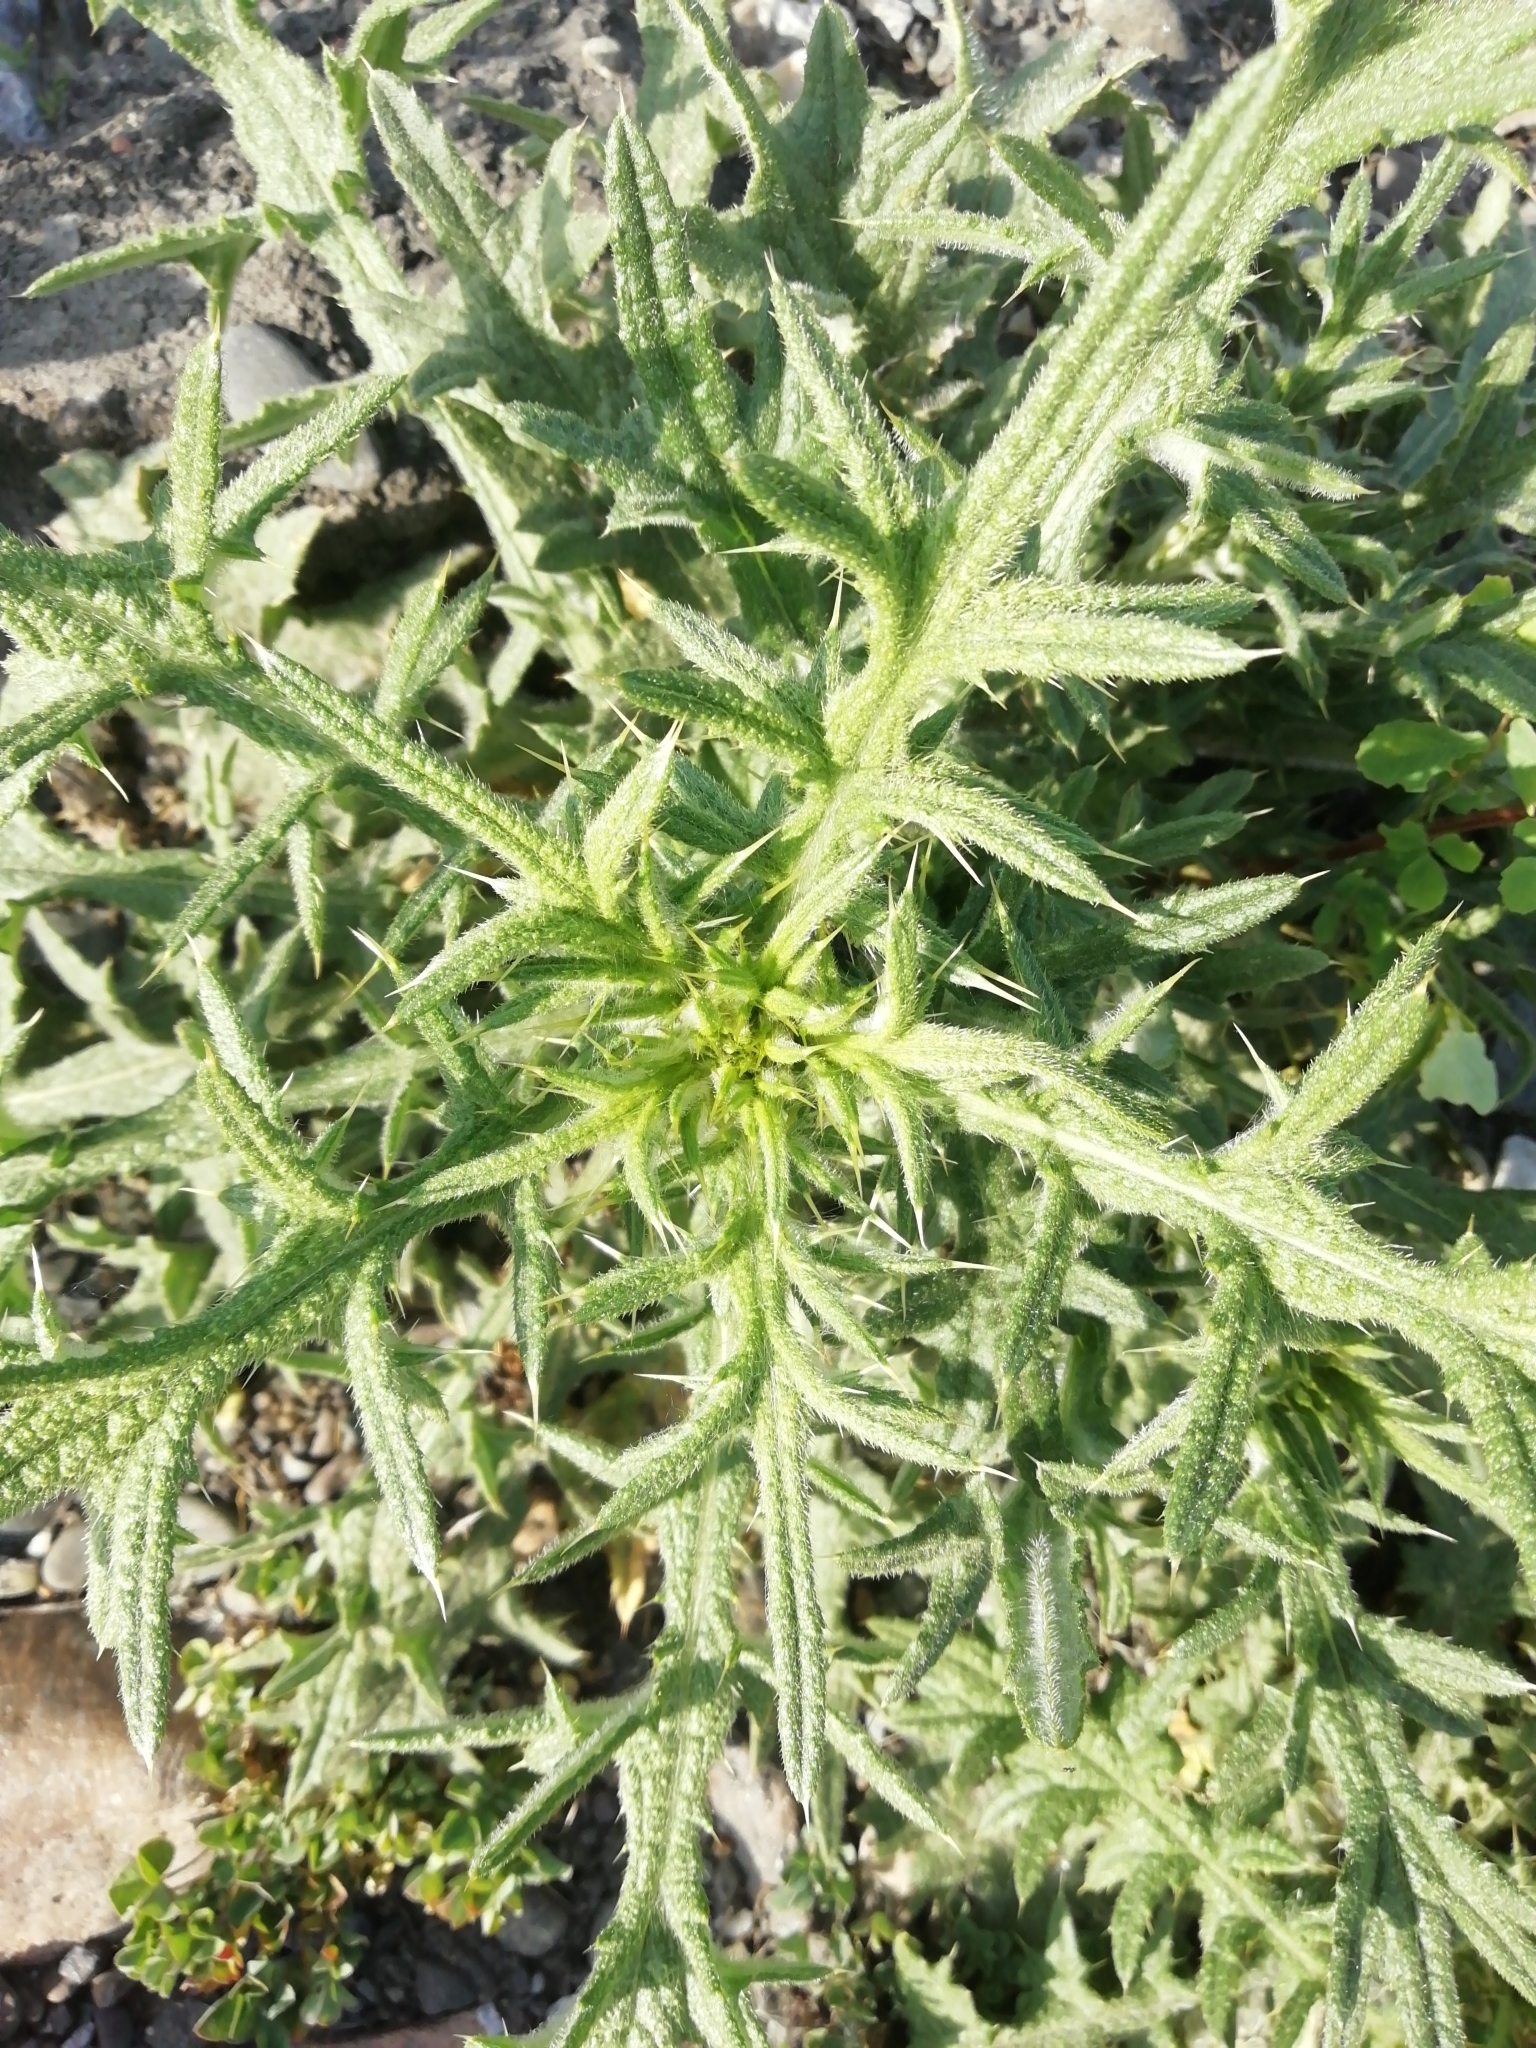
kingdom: Plantae
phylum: Tracheophyta
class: Magnoliopsida
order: Asterales
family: Asteraceae
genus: Cirsium
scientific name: Cirsium vulgare
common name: Bull thistle
